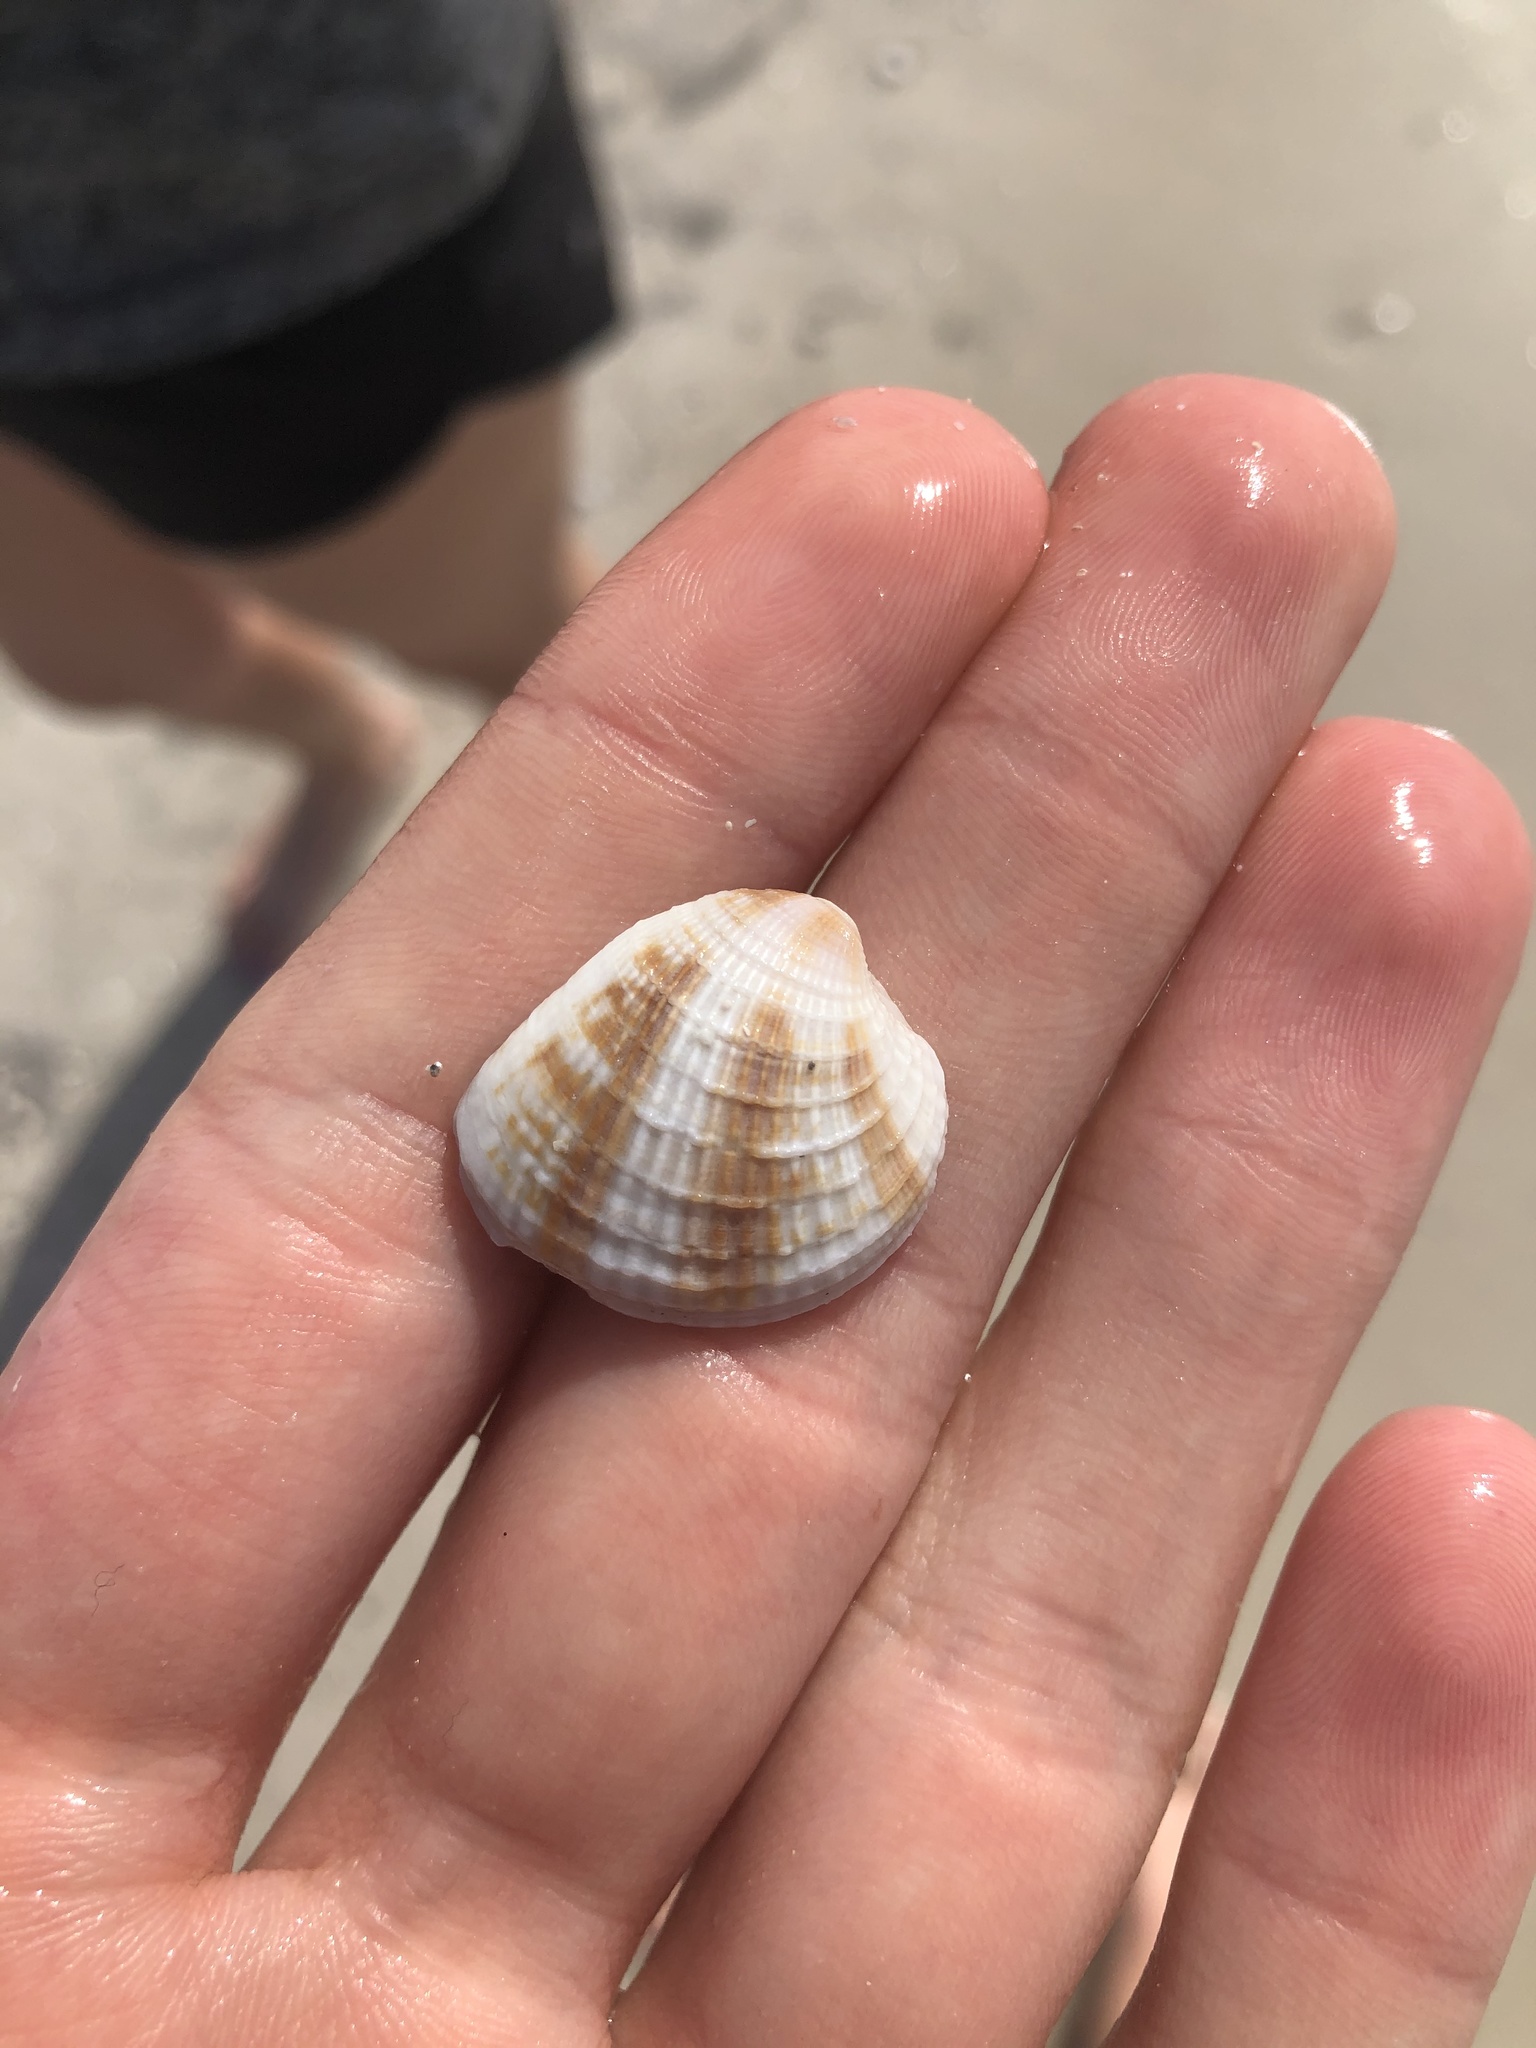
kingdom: Animalia
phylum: Mollusca
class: Bivalvia
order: Venerida
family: Veneridae
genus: Chione
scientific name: Chione elevata
